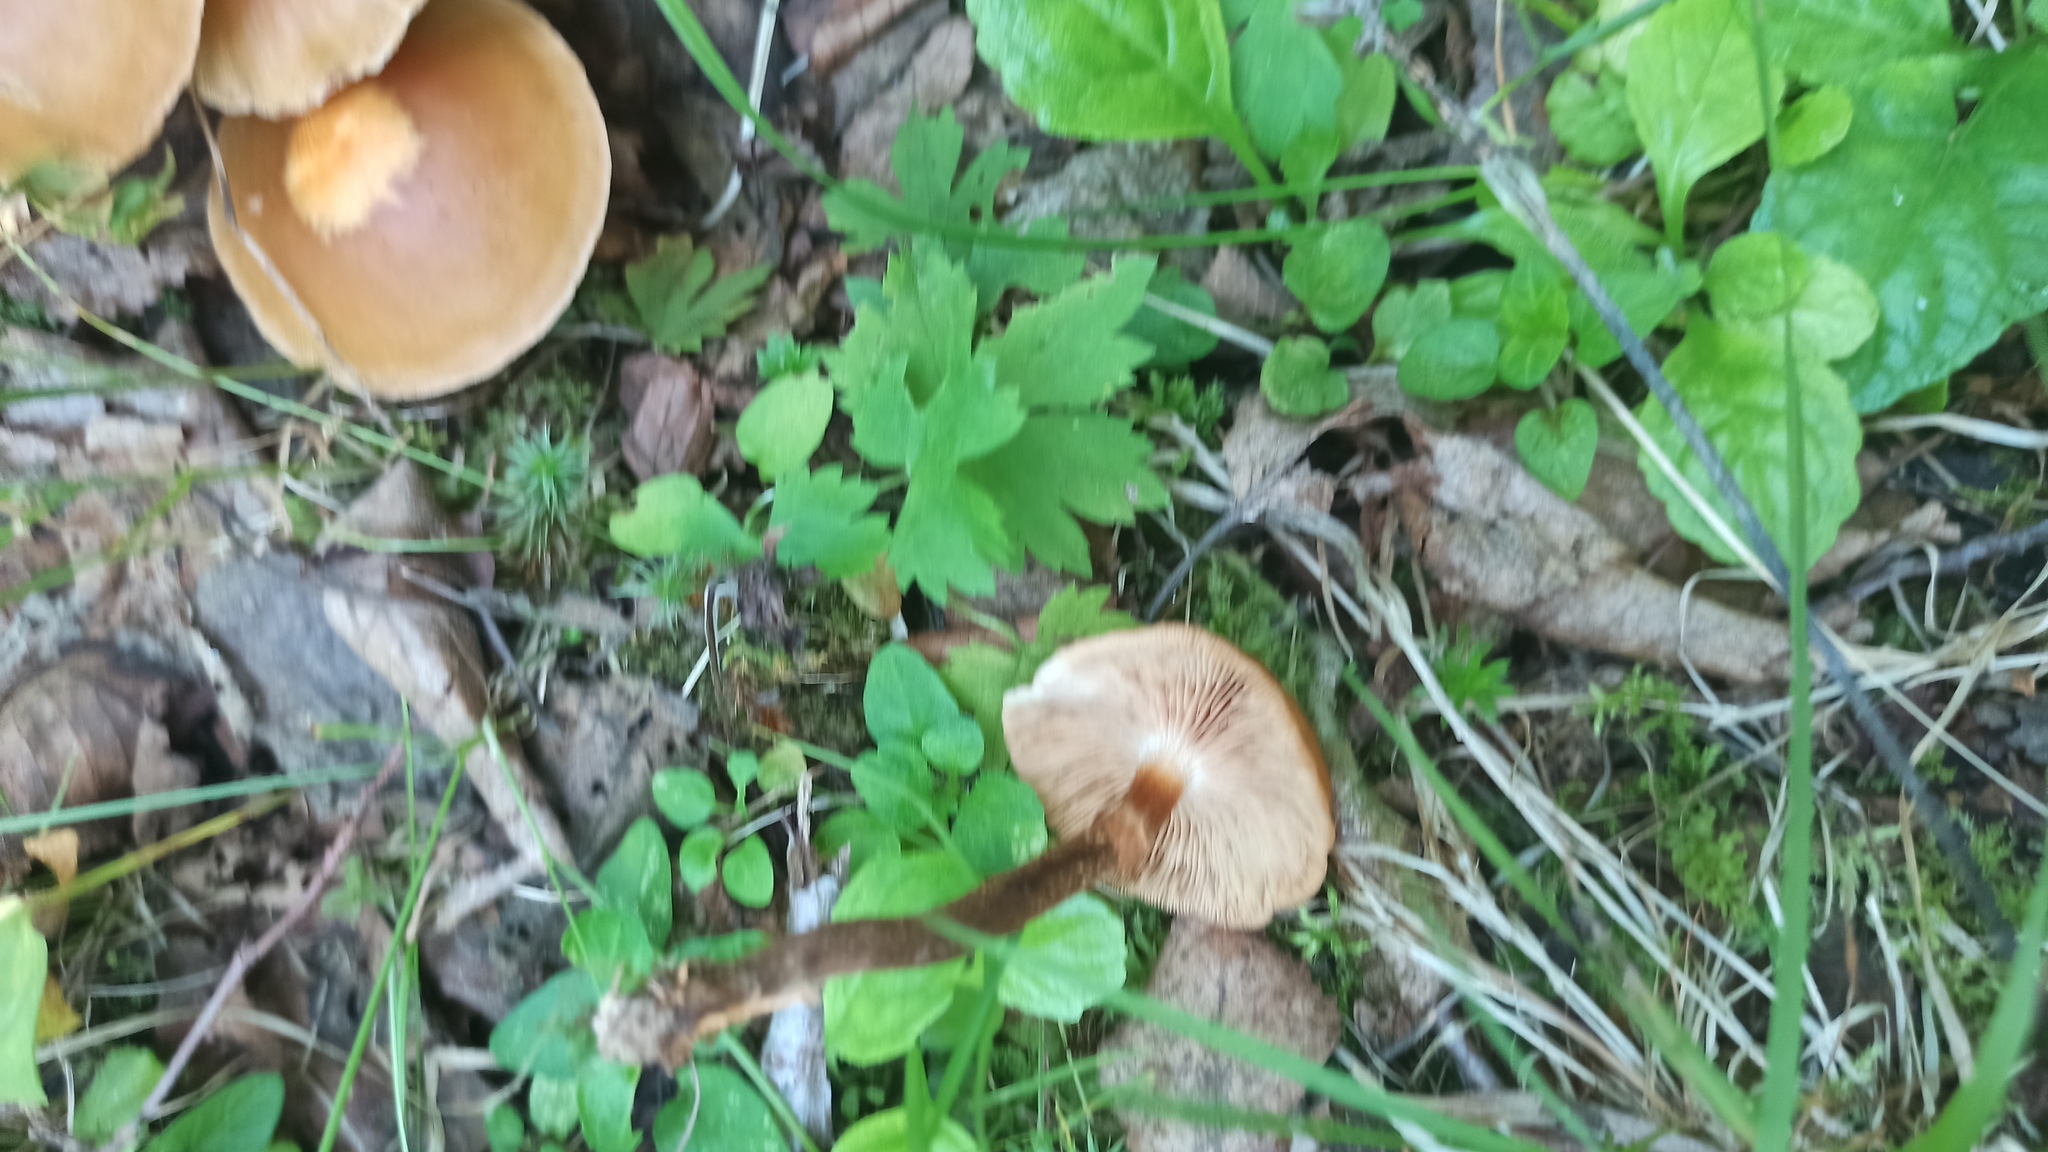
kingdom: Fungi
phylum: Basidiomycota
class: Agaricomycetes
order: Agaricales
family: Strophariaceae
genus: Kuehneromyces
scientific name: Kuehneromyces mutabilis
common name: Sheathed woodtuft
